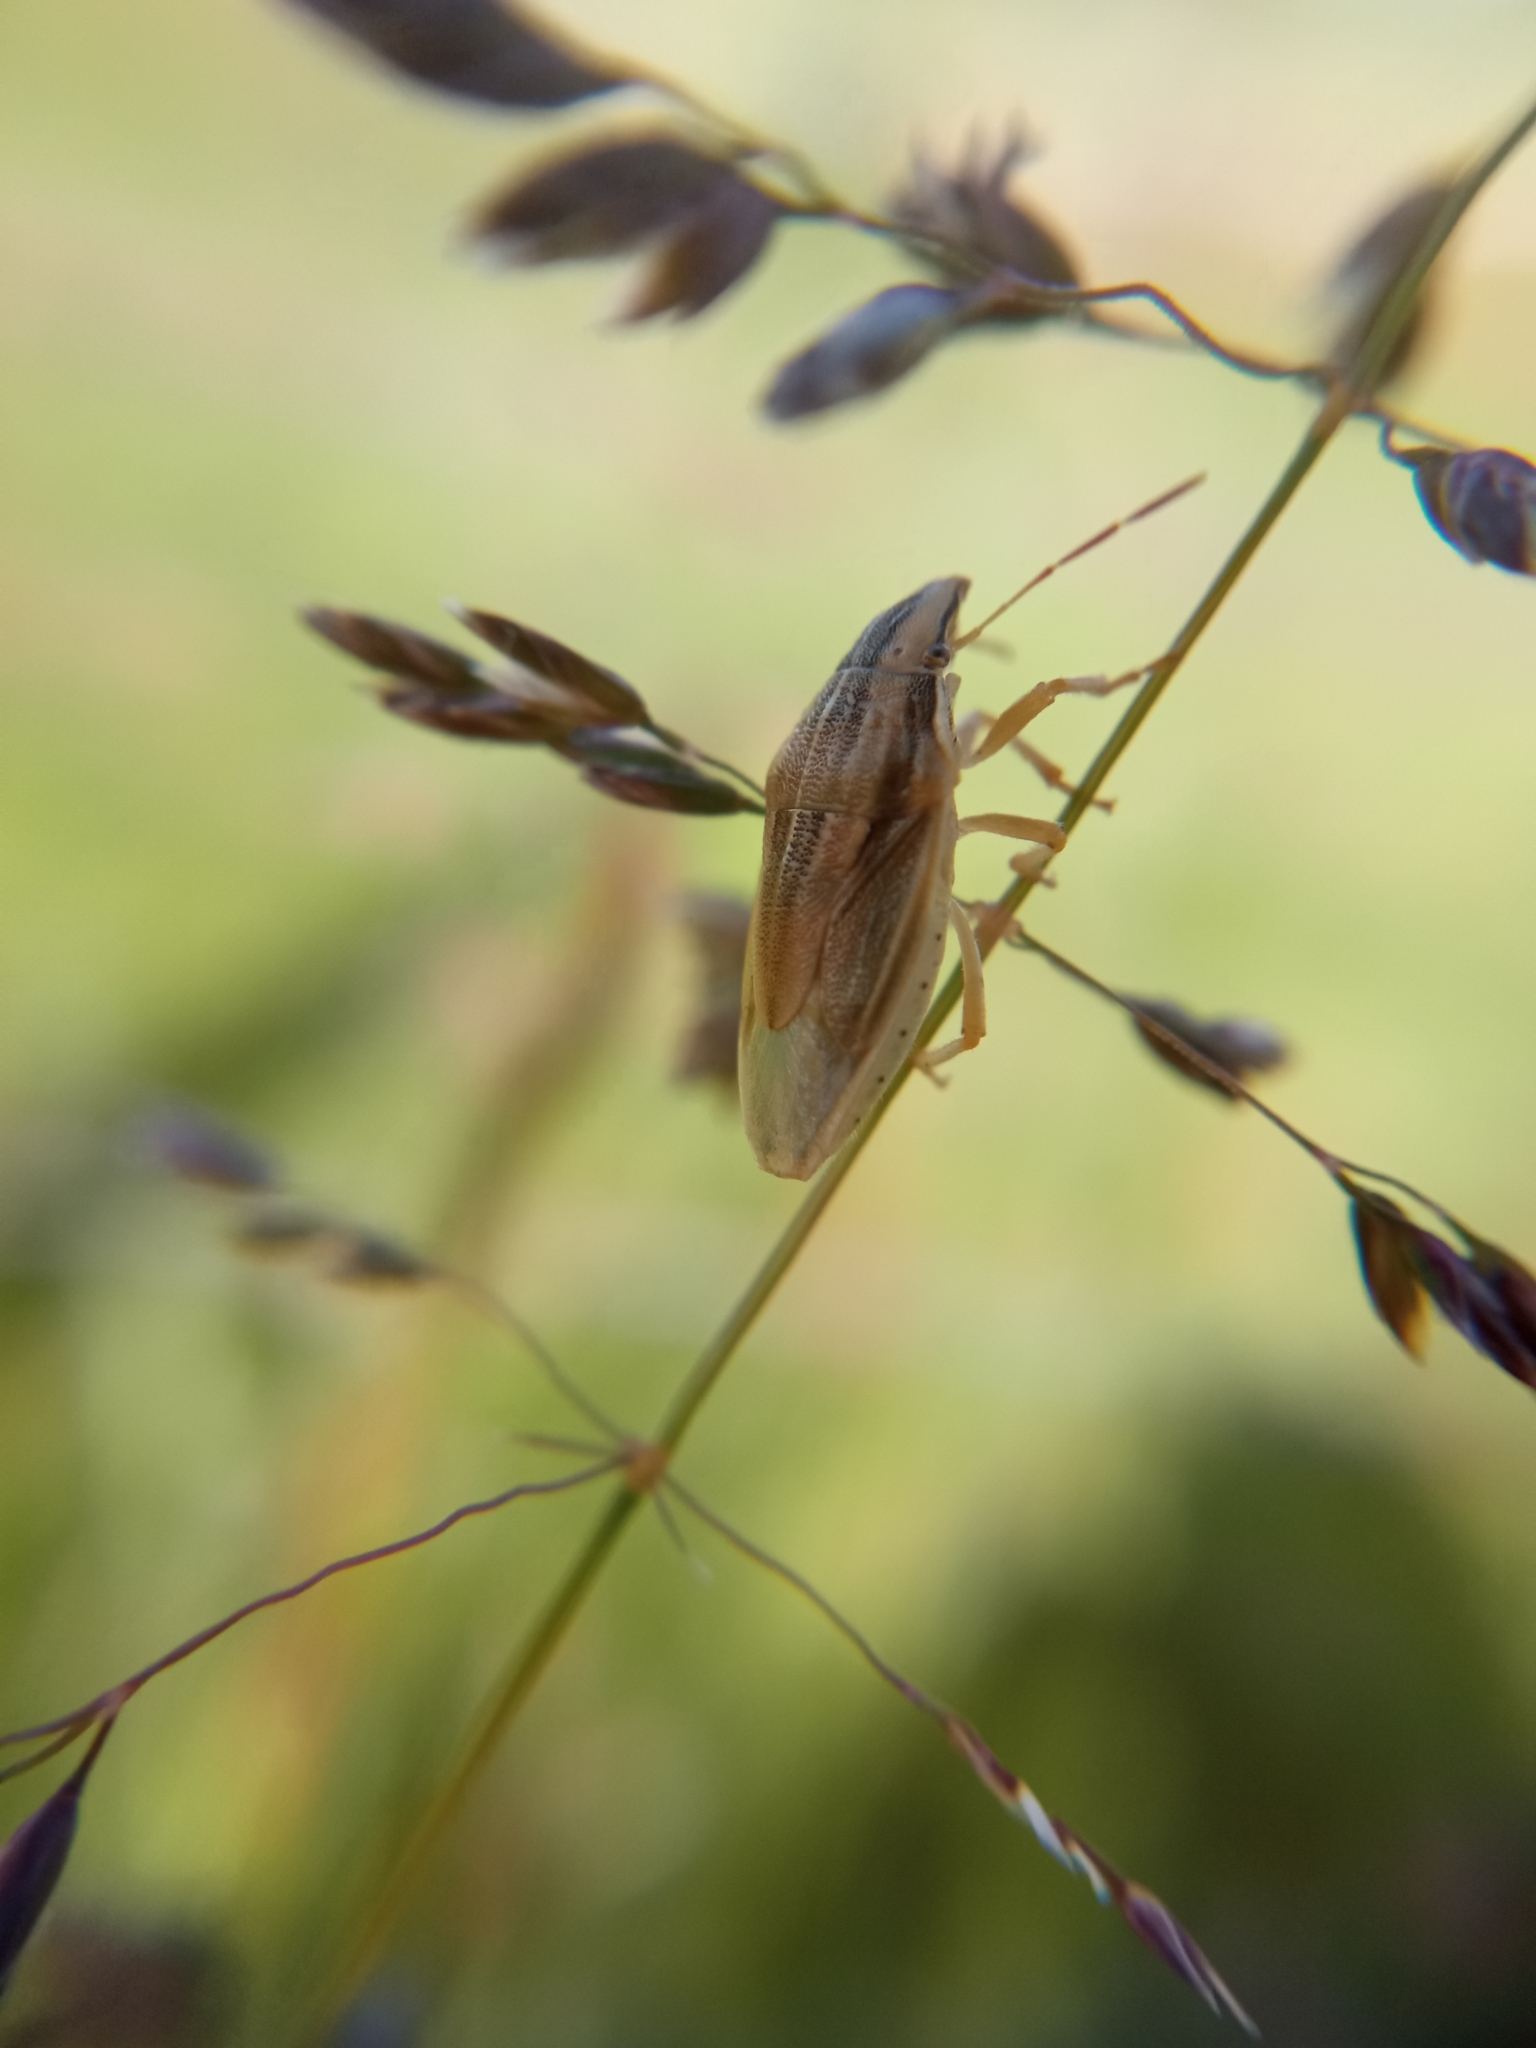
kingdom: Animalia
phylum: Arthropoda
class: Insecta
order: Hemiptera
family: Pentatomidae
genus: Aelia
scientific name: Aelia acuminata
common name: Bishop's mitre
